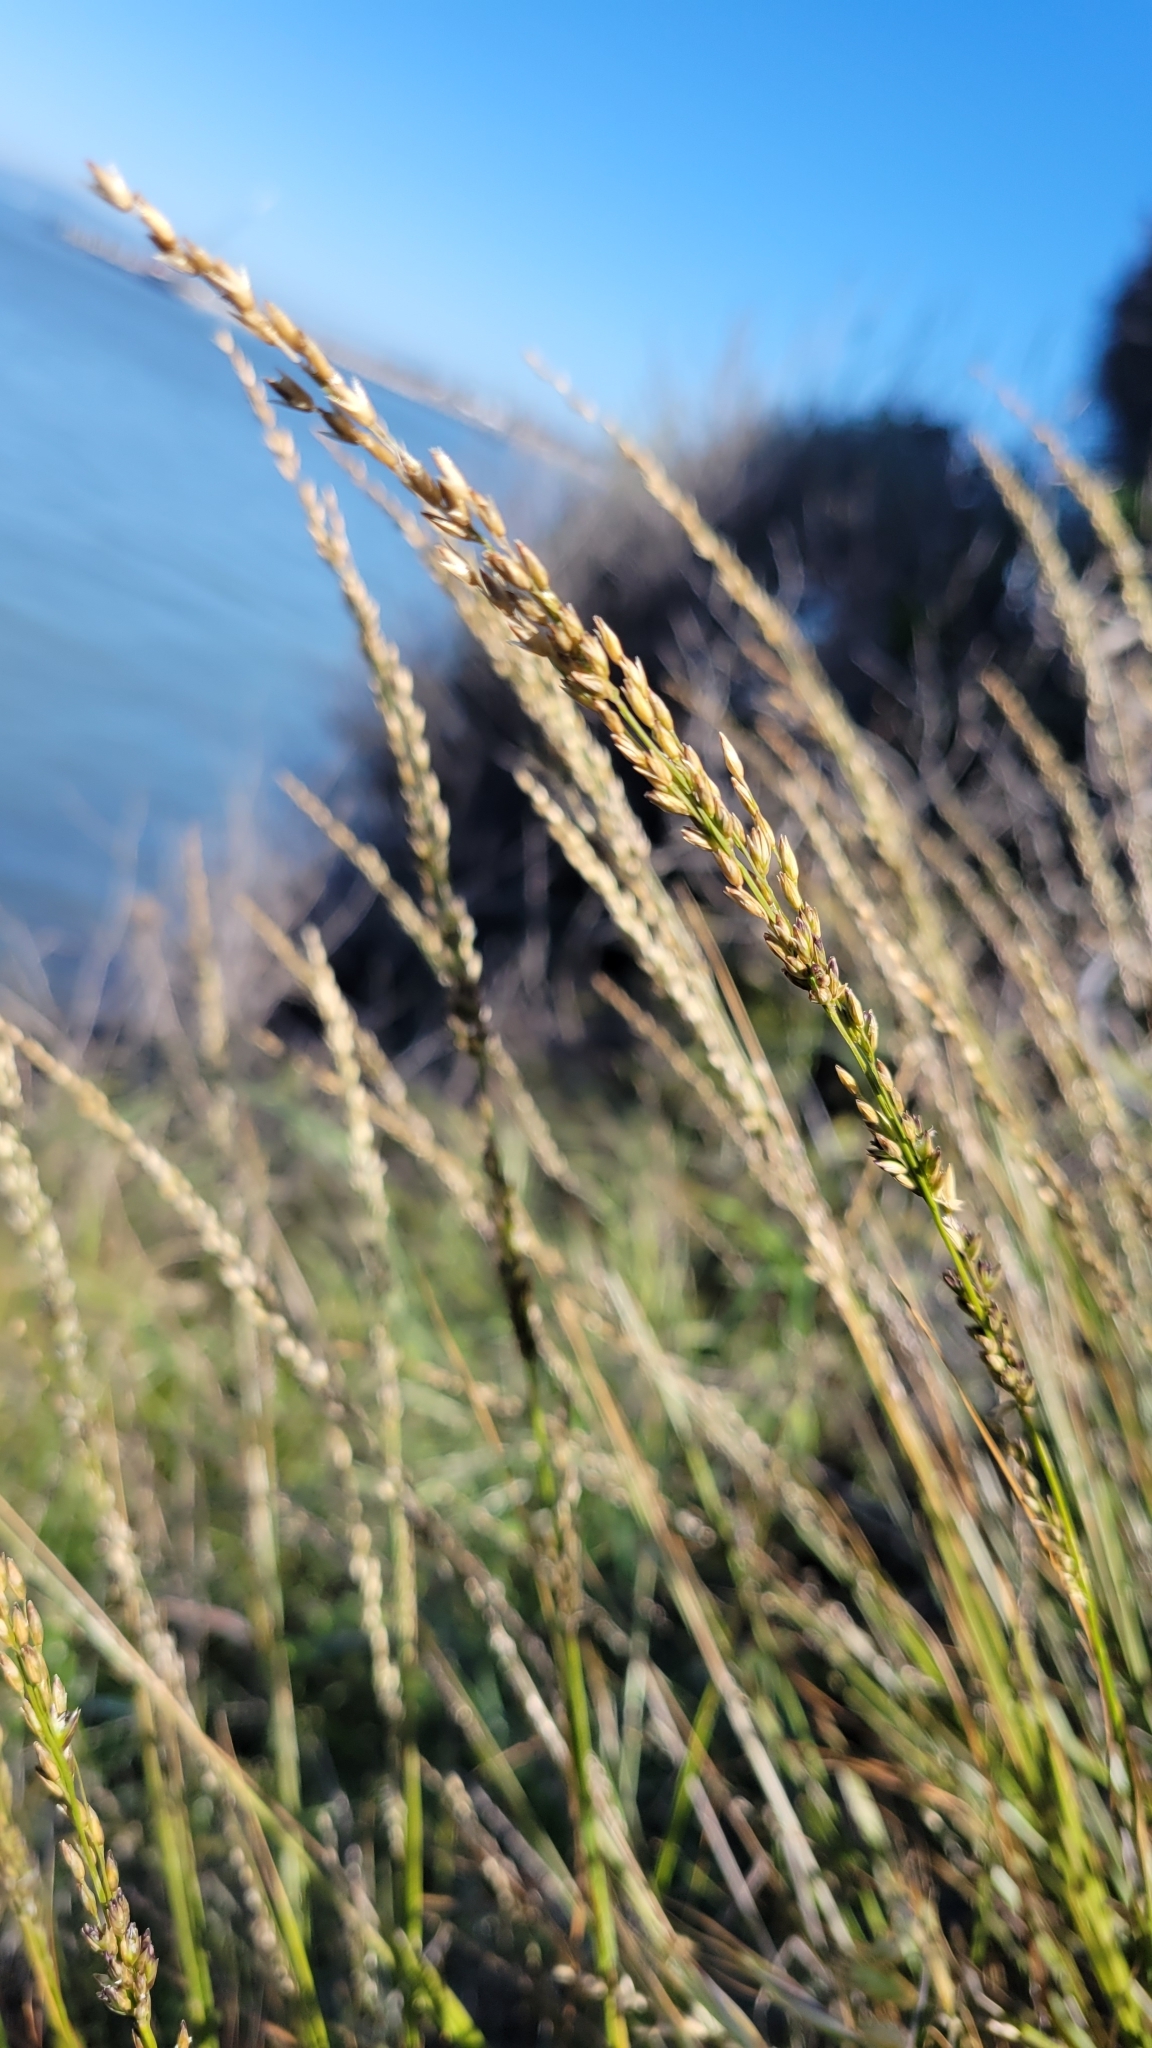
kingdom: Plantae
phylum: Tracheophyta
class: Liliopsida
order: Poales
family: Poaceae
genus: Melica
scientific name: Melica californica
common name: California melic
